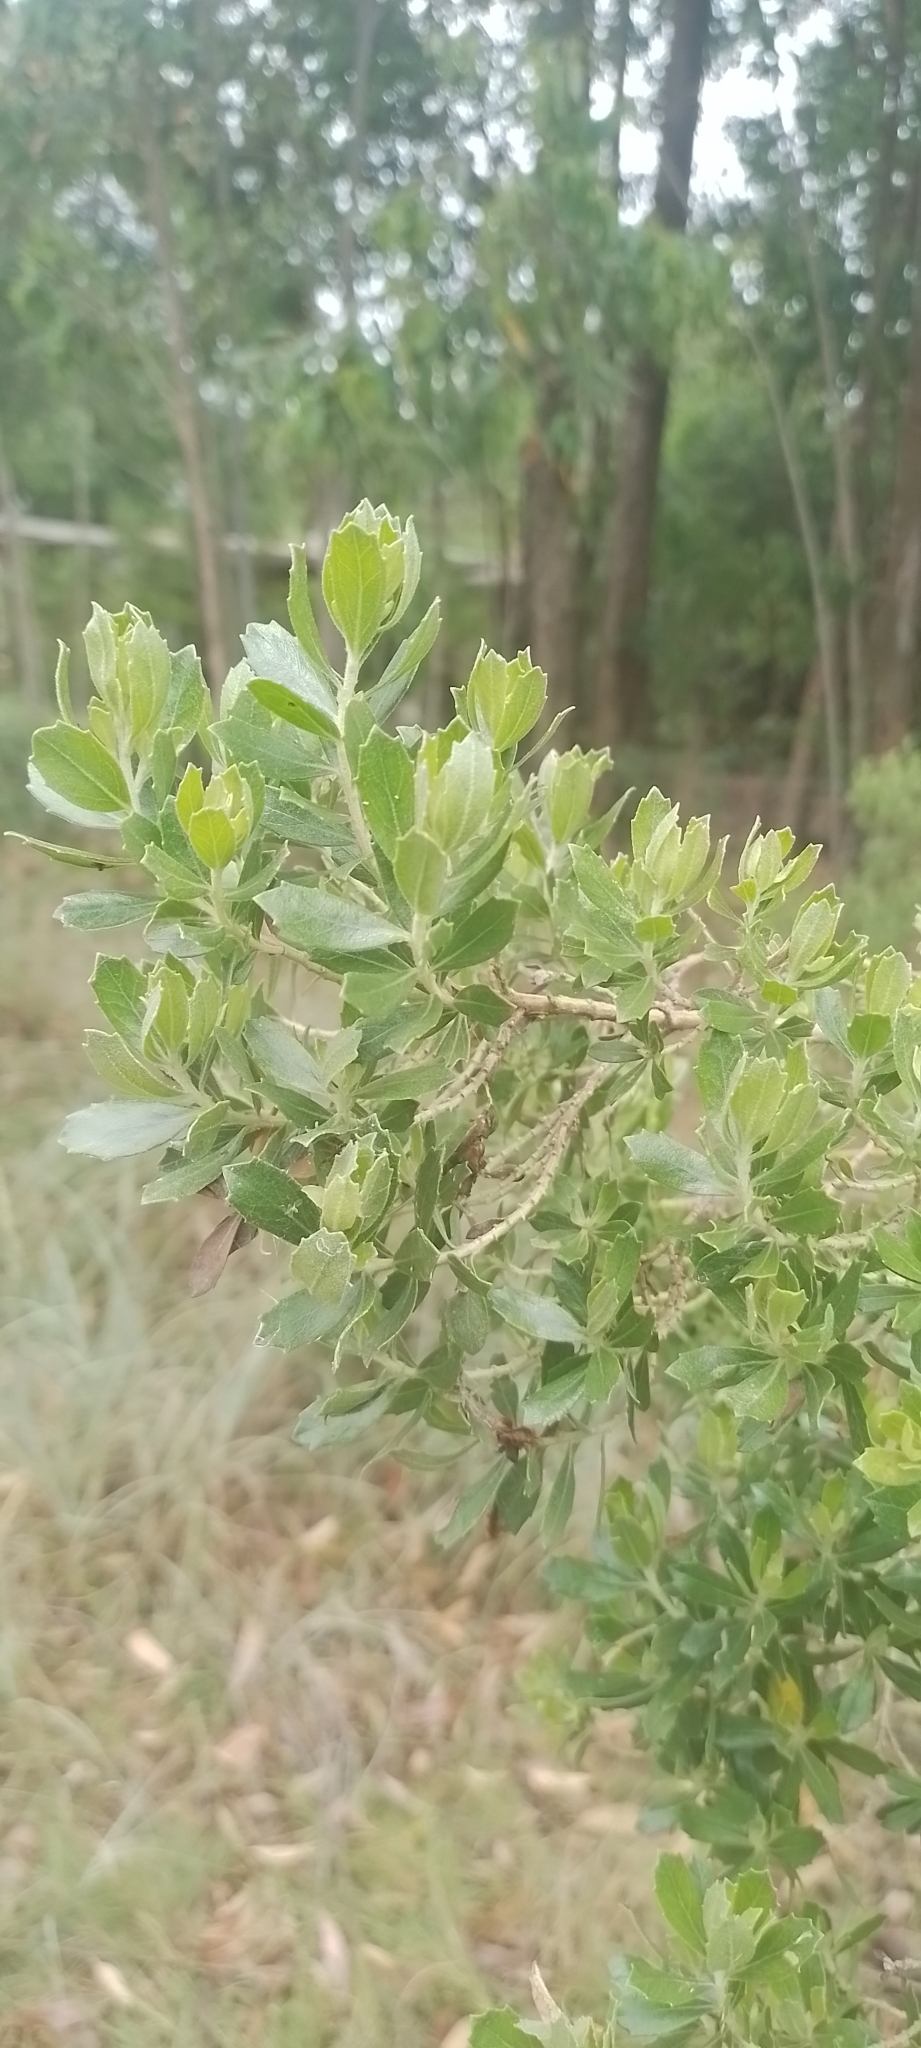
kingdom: Plantae
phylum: Tracheophyta
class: Magnoliopsida
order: Asterales
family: Asteraceae
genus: Baccharis
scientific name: Baccharis dracunculifolia
